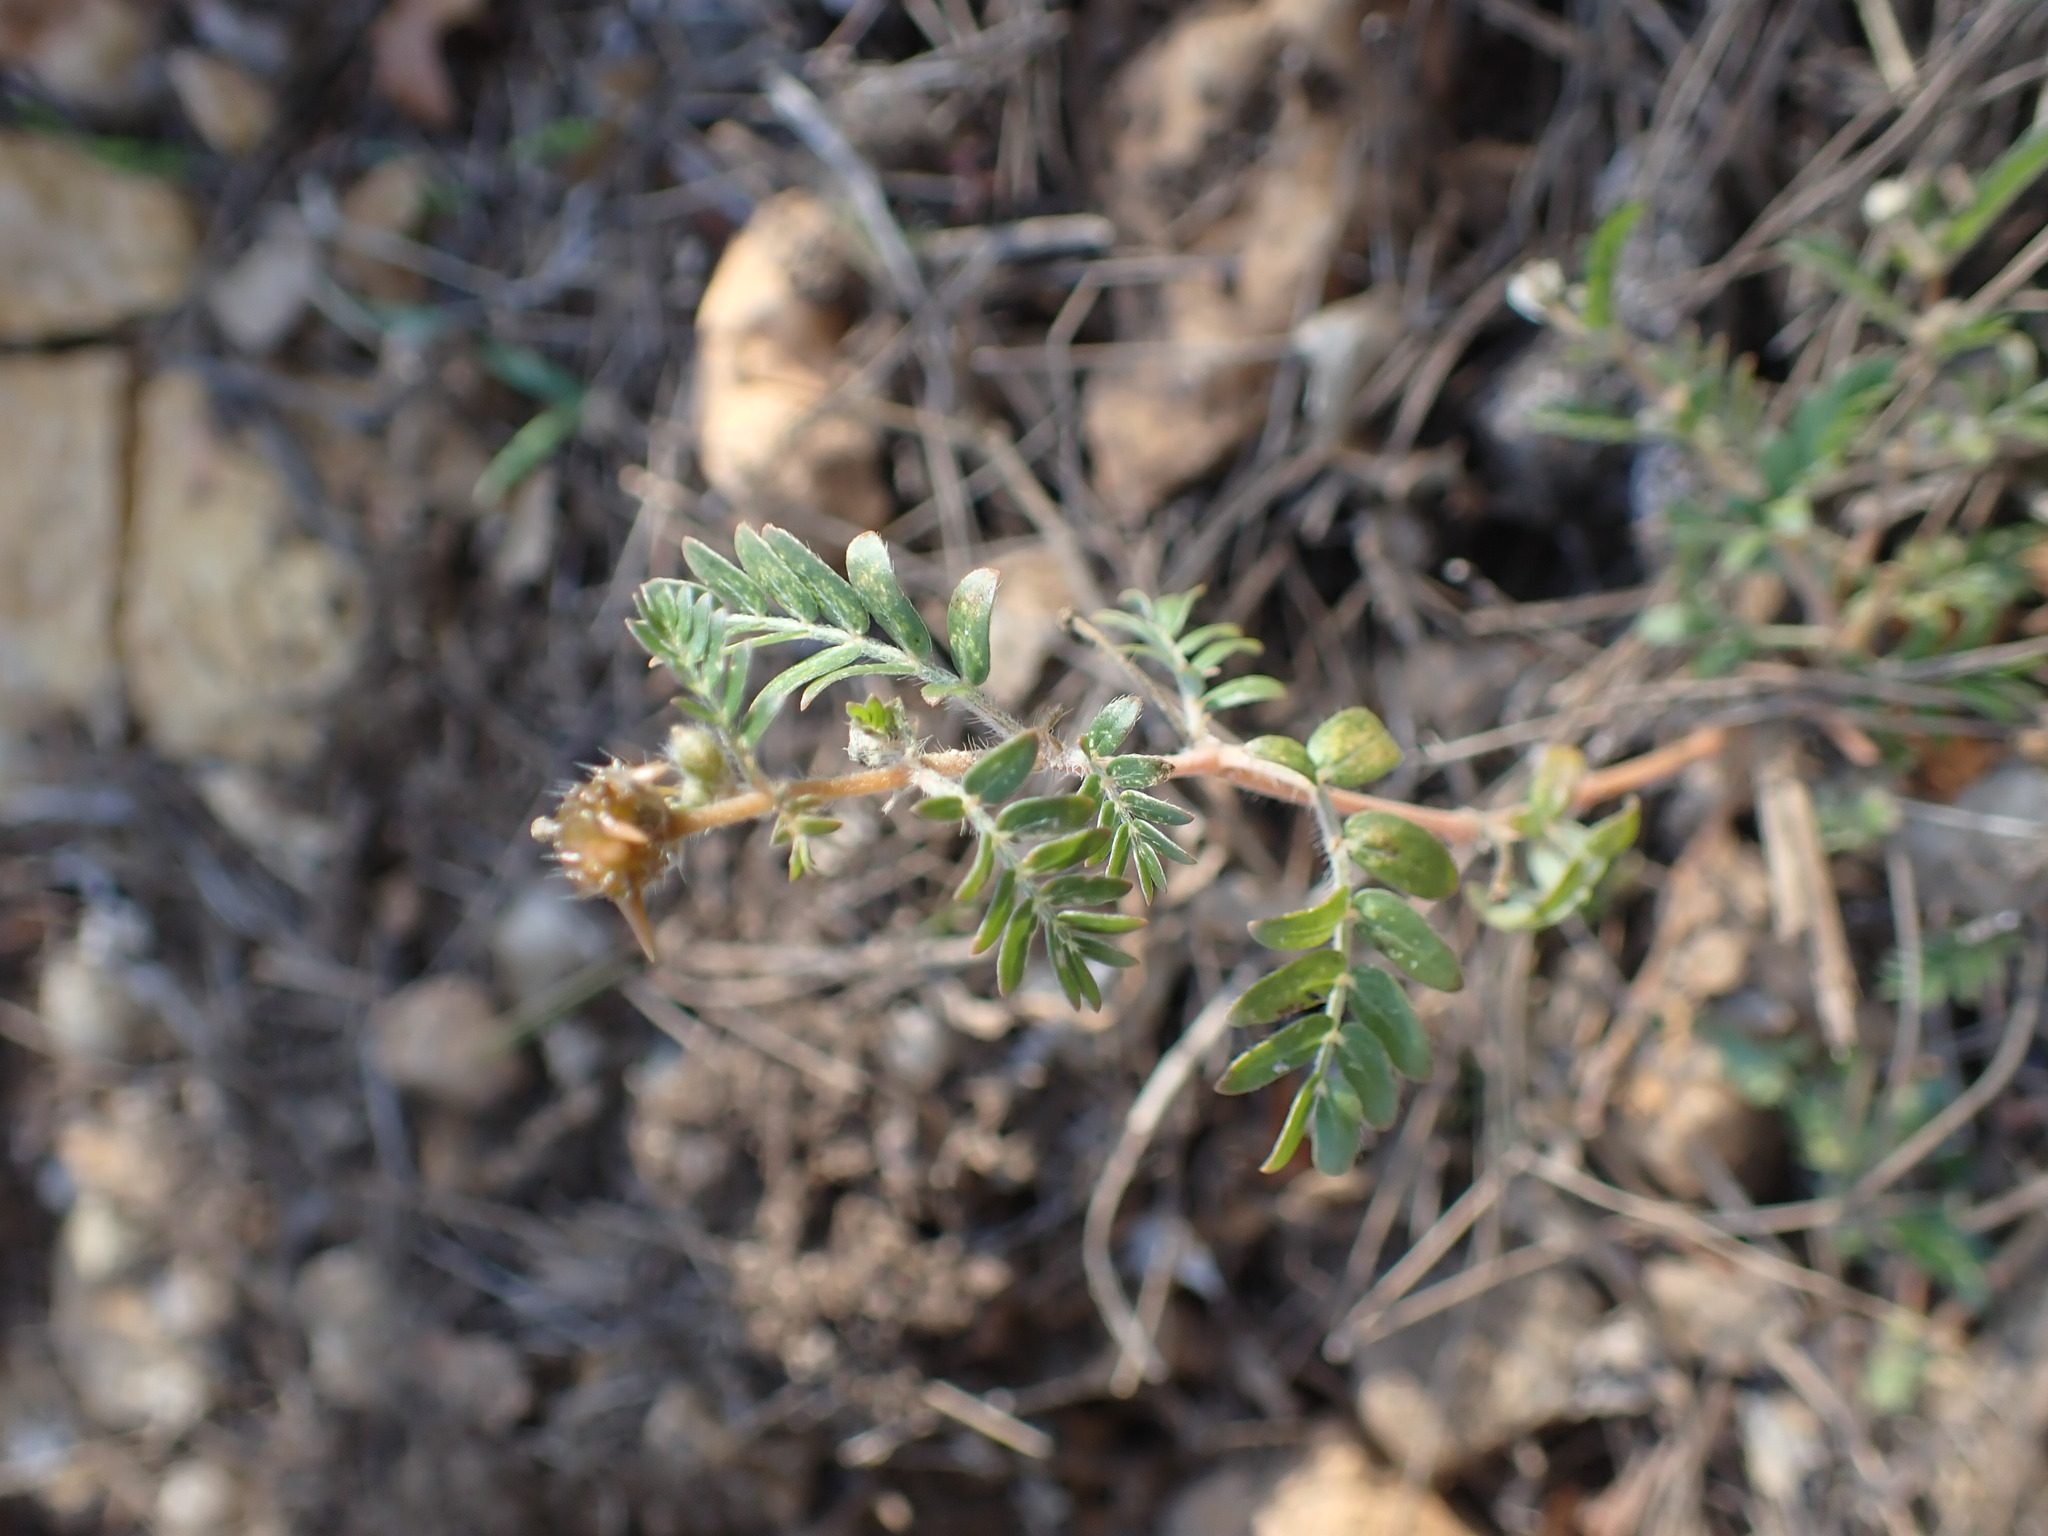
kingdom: Plantae
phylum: Tracheophyta
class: Magnoliopsida
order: Zygophyllales
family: Zygophyllaceae
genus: Tribulus
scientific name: Tribulus terrestris
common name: Puncturevine
